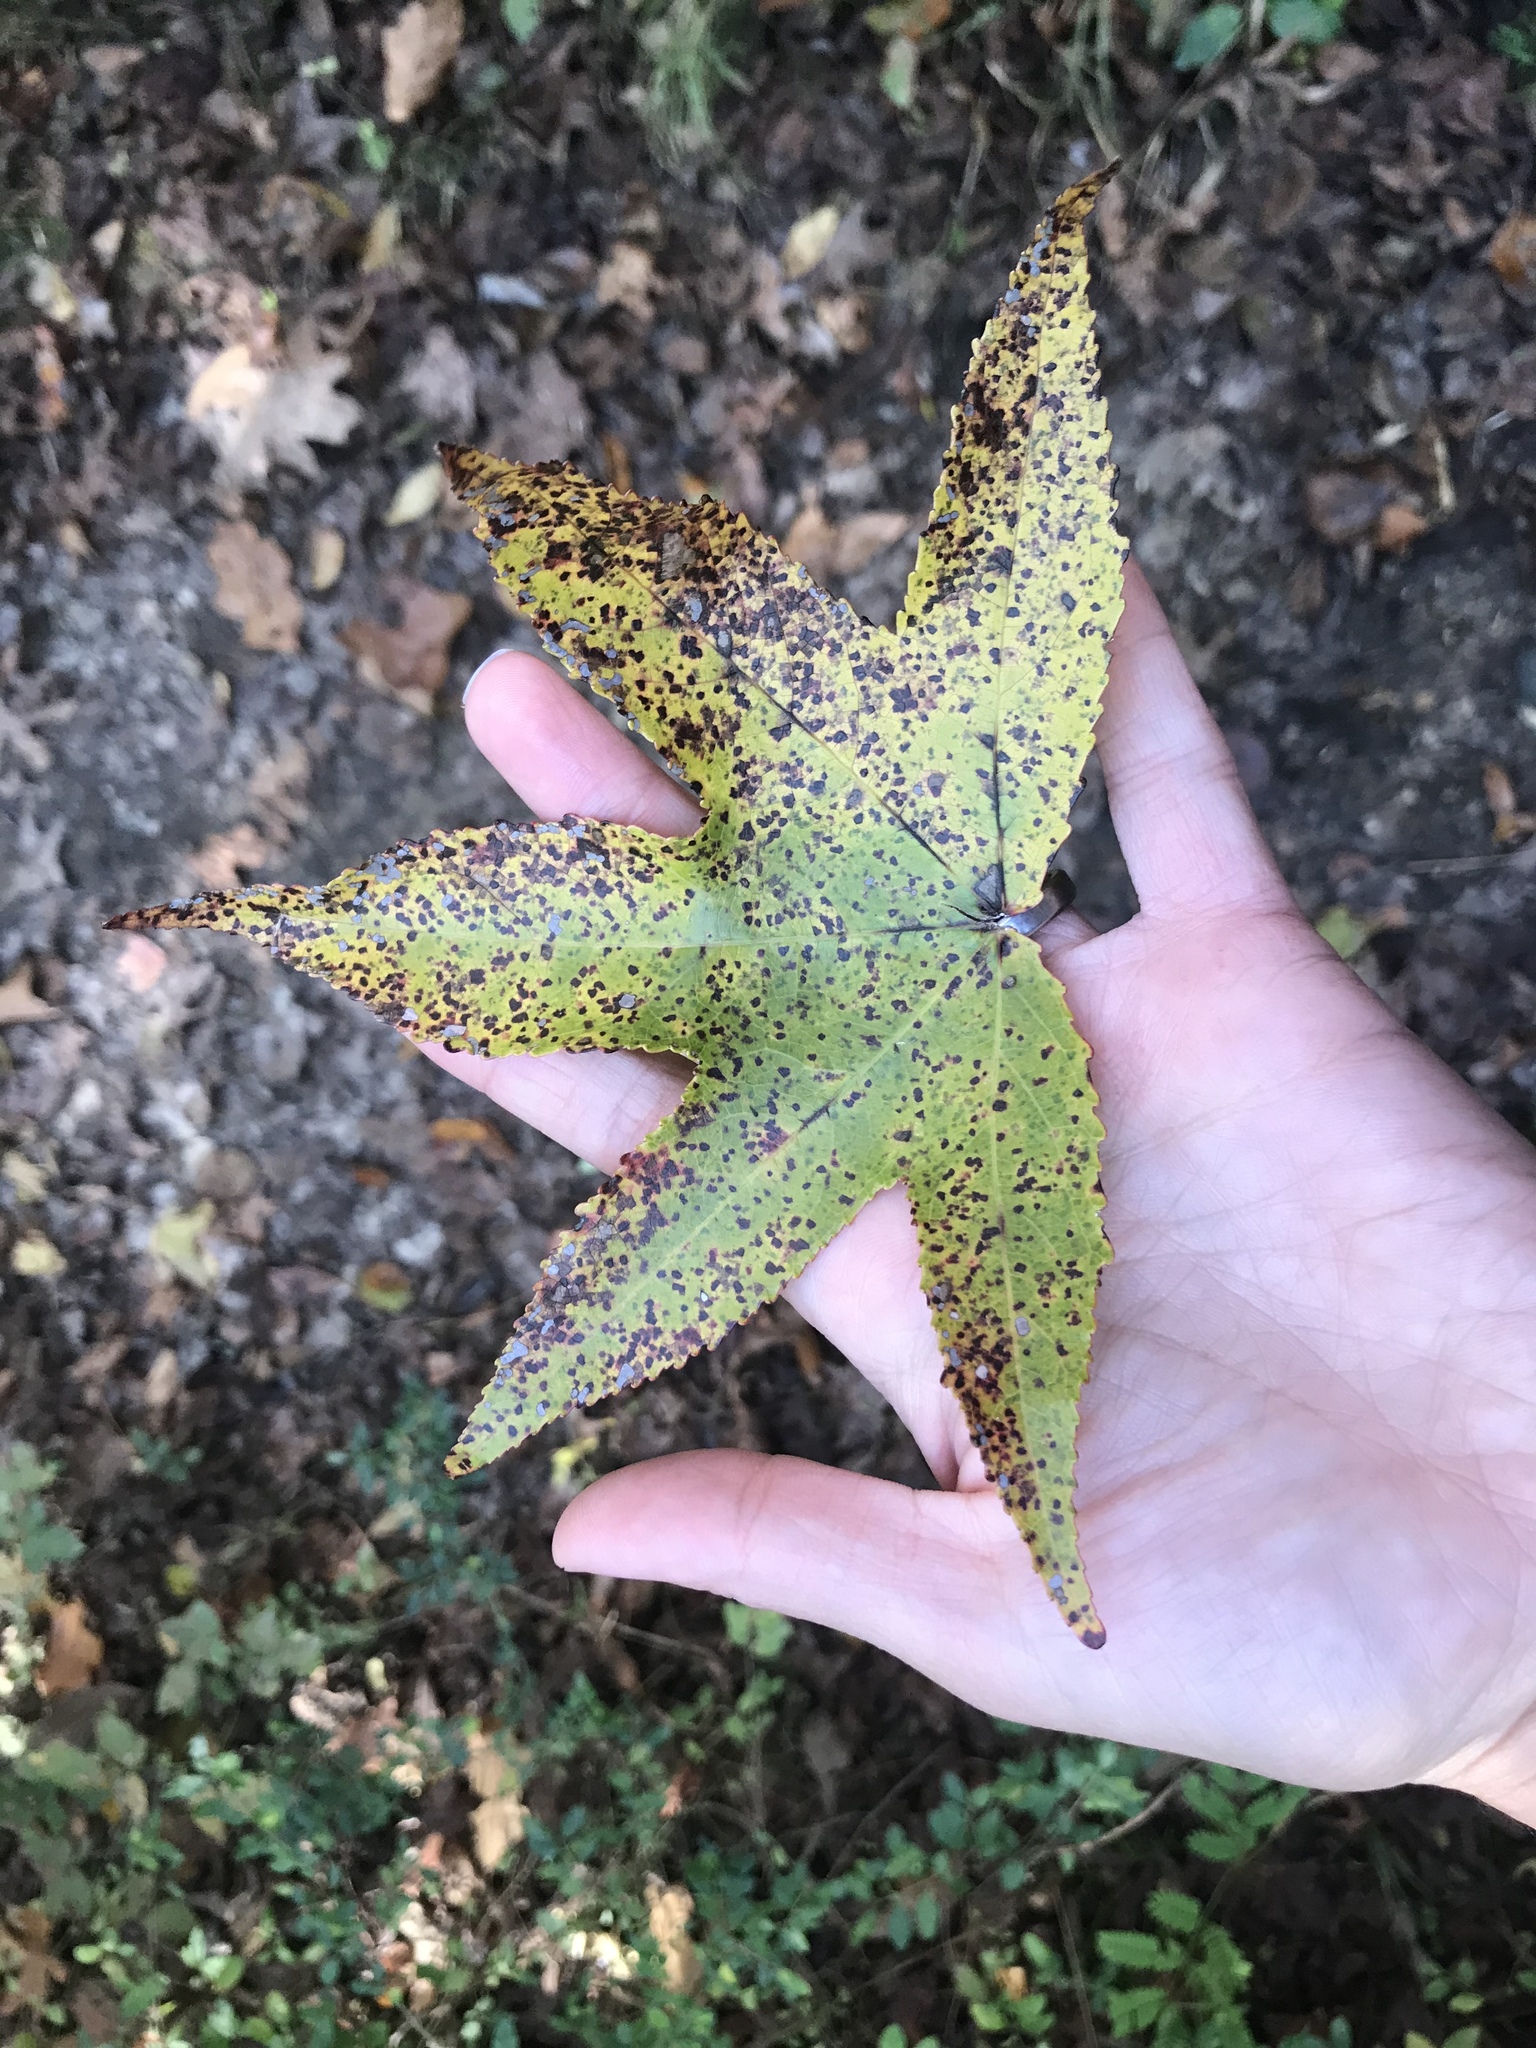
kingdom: Plantae
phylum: Tracheophyta
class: Magnoliopsida
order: Saxifragales
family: Altingiaceae
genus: Liquidambar
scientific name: Liquidambar styraciflua
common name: Sweet gum
